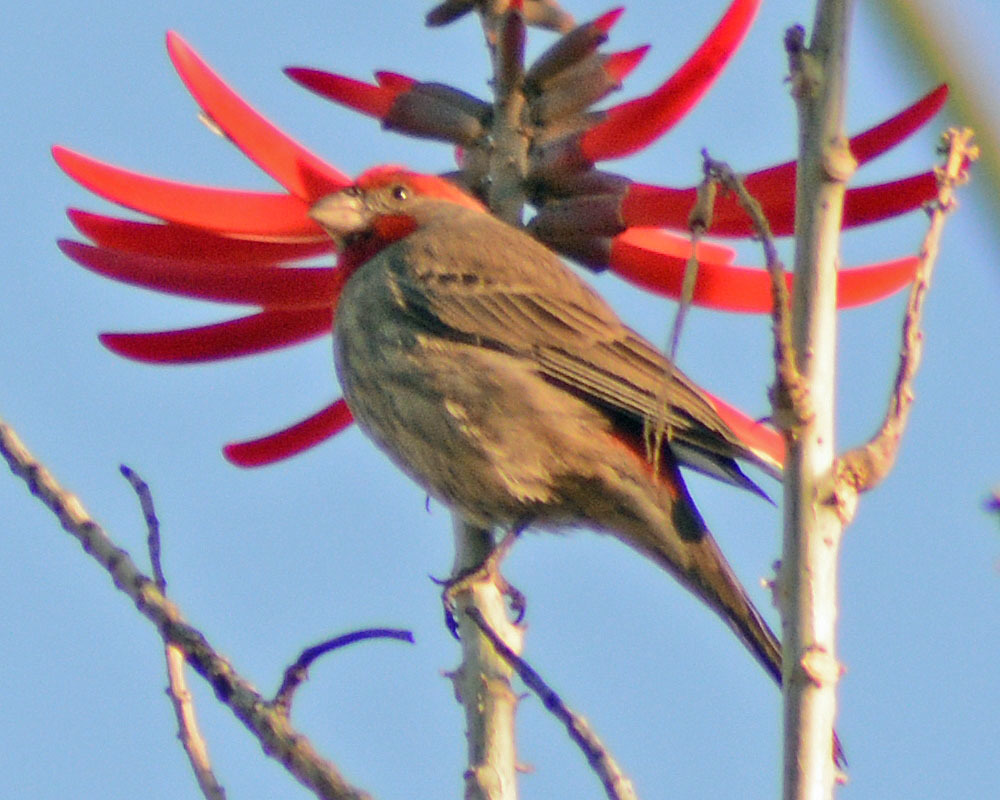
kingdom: Animalia
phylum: Chordata
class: Aves
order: Passeriformes
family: Fringillidae
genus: Haemorhous
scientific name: Haemorhous mexicanus
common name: House finch
